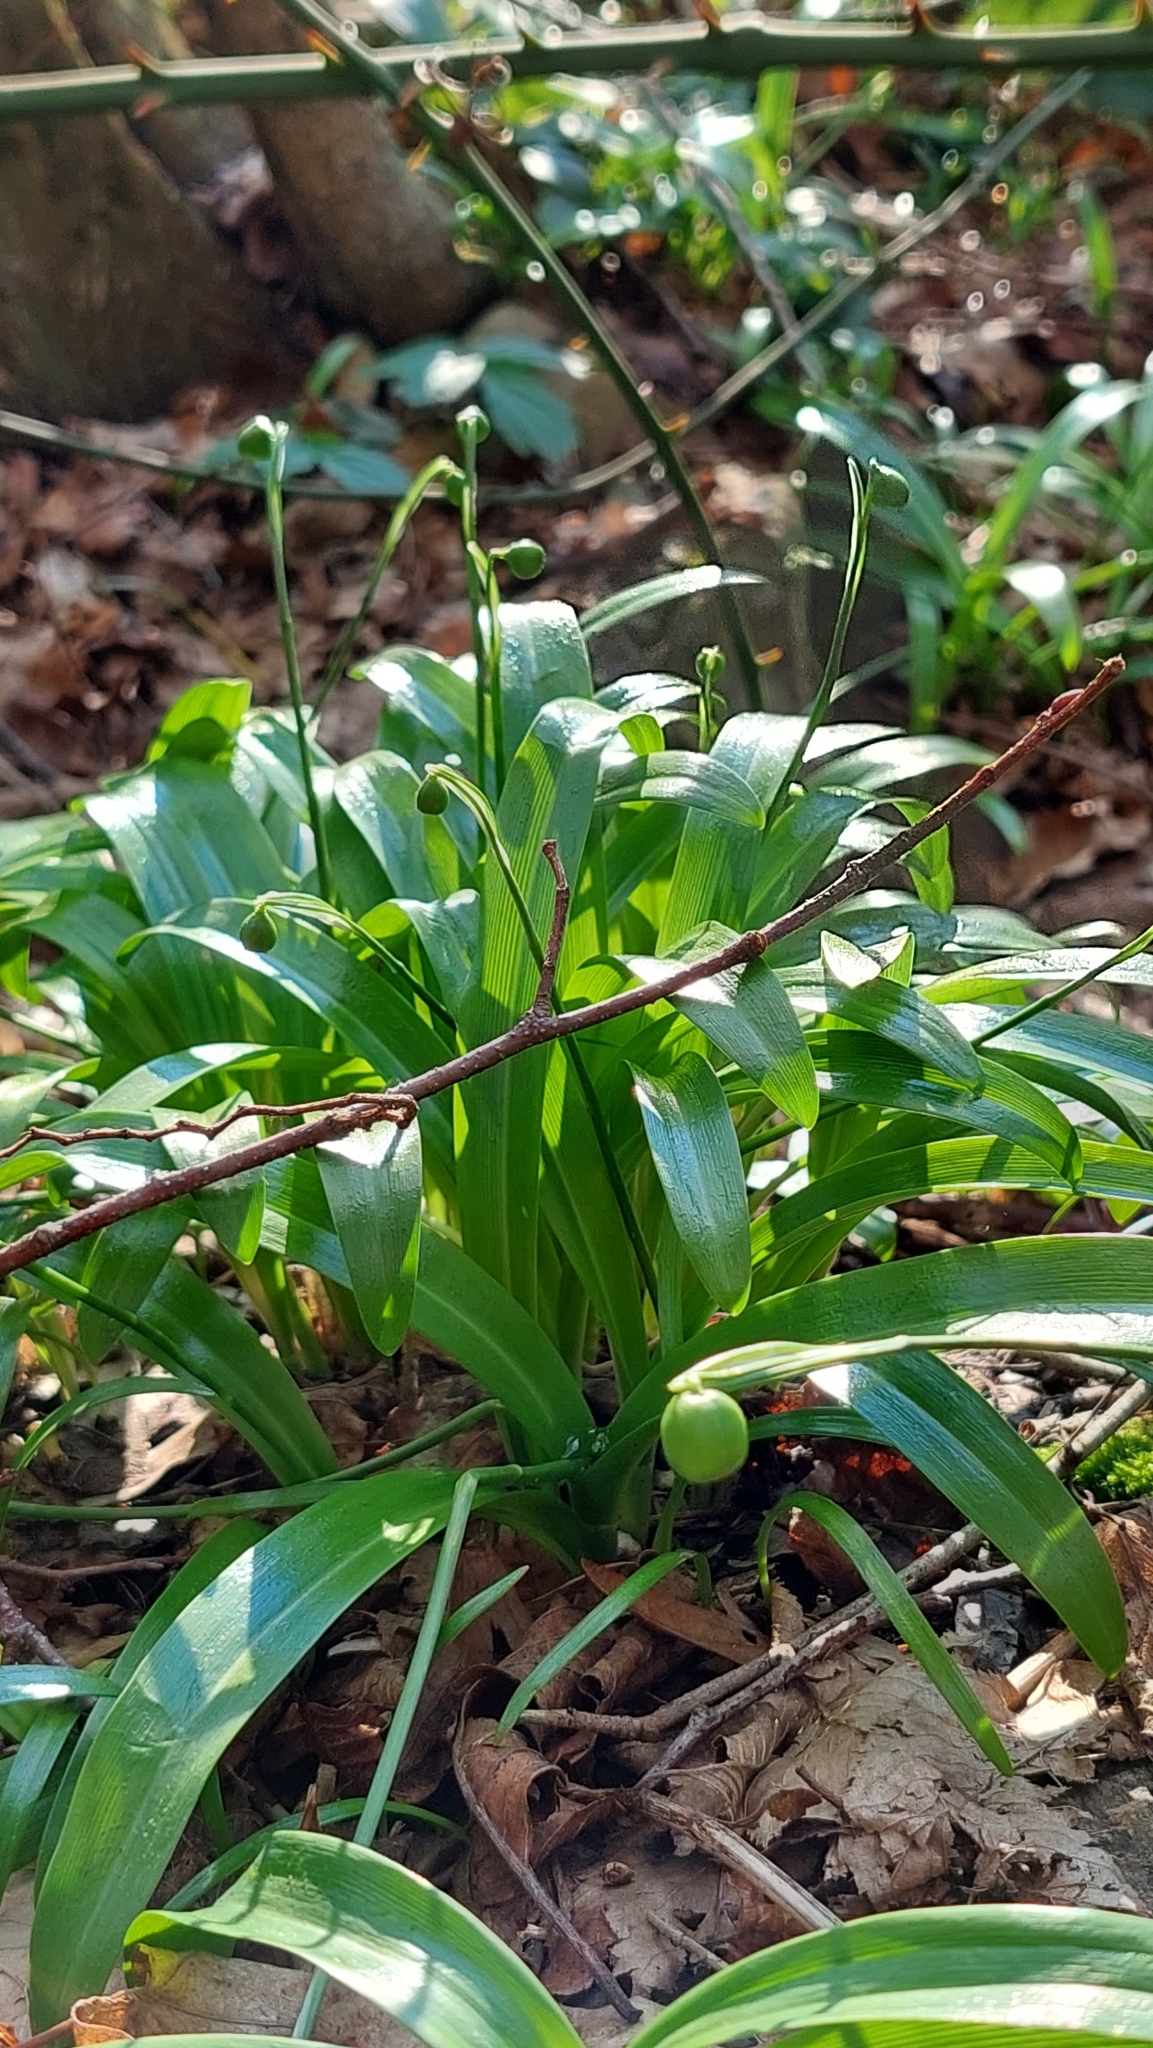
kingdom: Plantae
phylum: Tracheophyta
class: Liliopsida
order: Asparagales
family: Amaryllidaceae
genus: Galanthus
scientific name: Galanthus woronowii
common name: Green snowdrop
